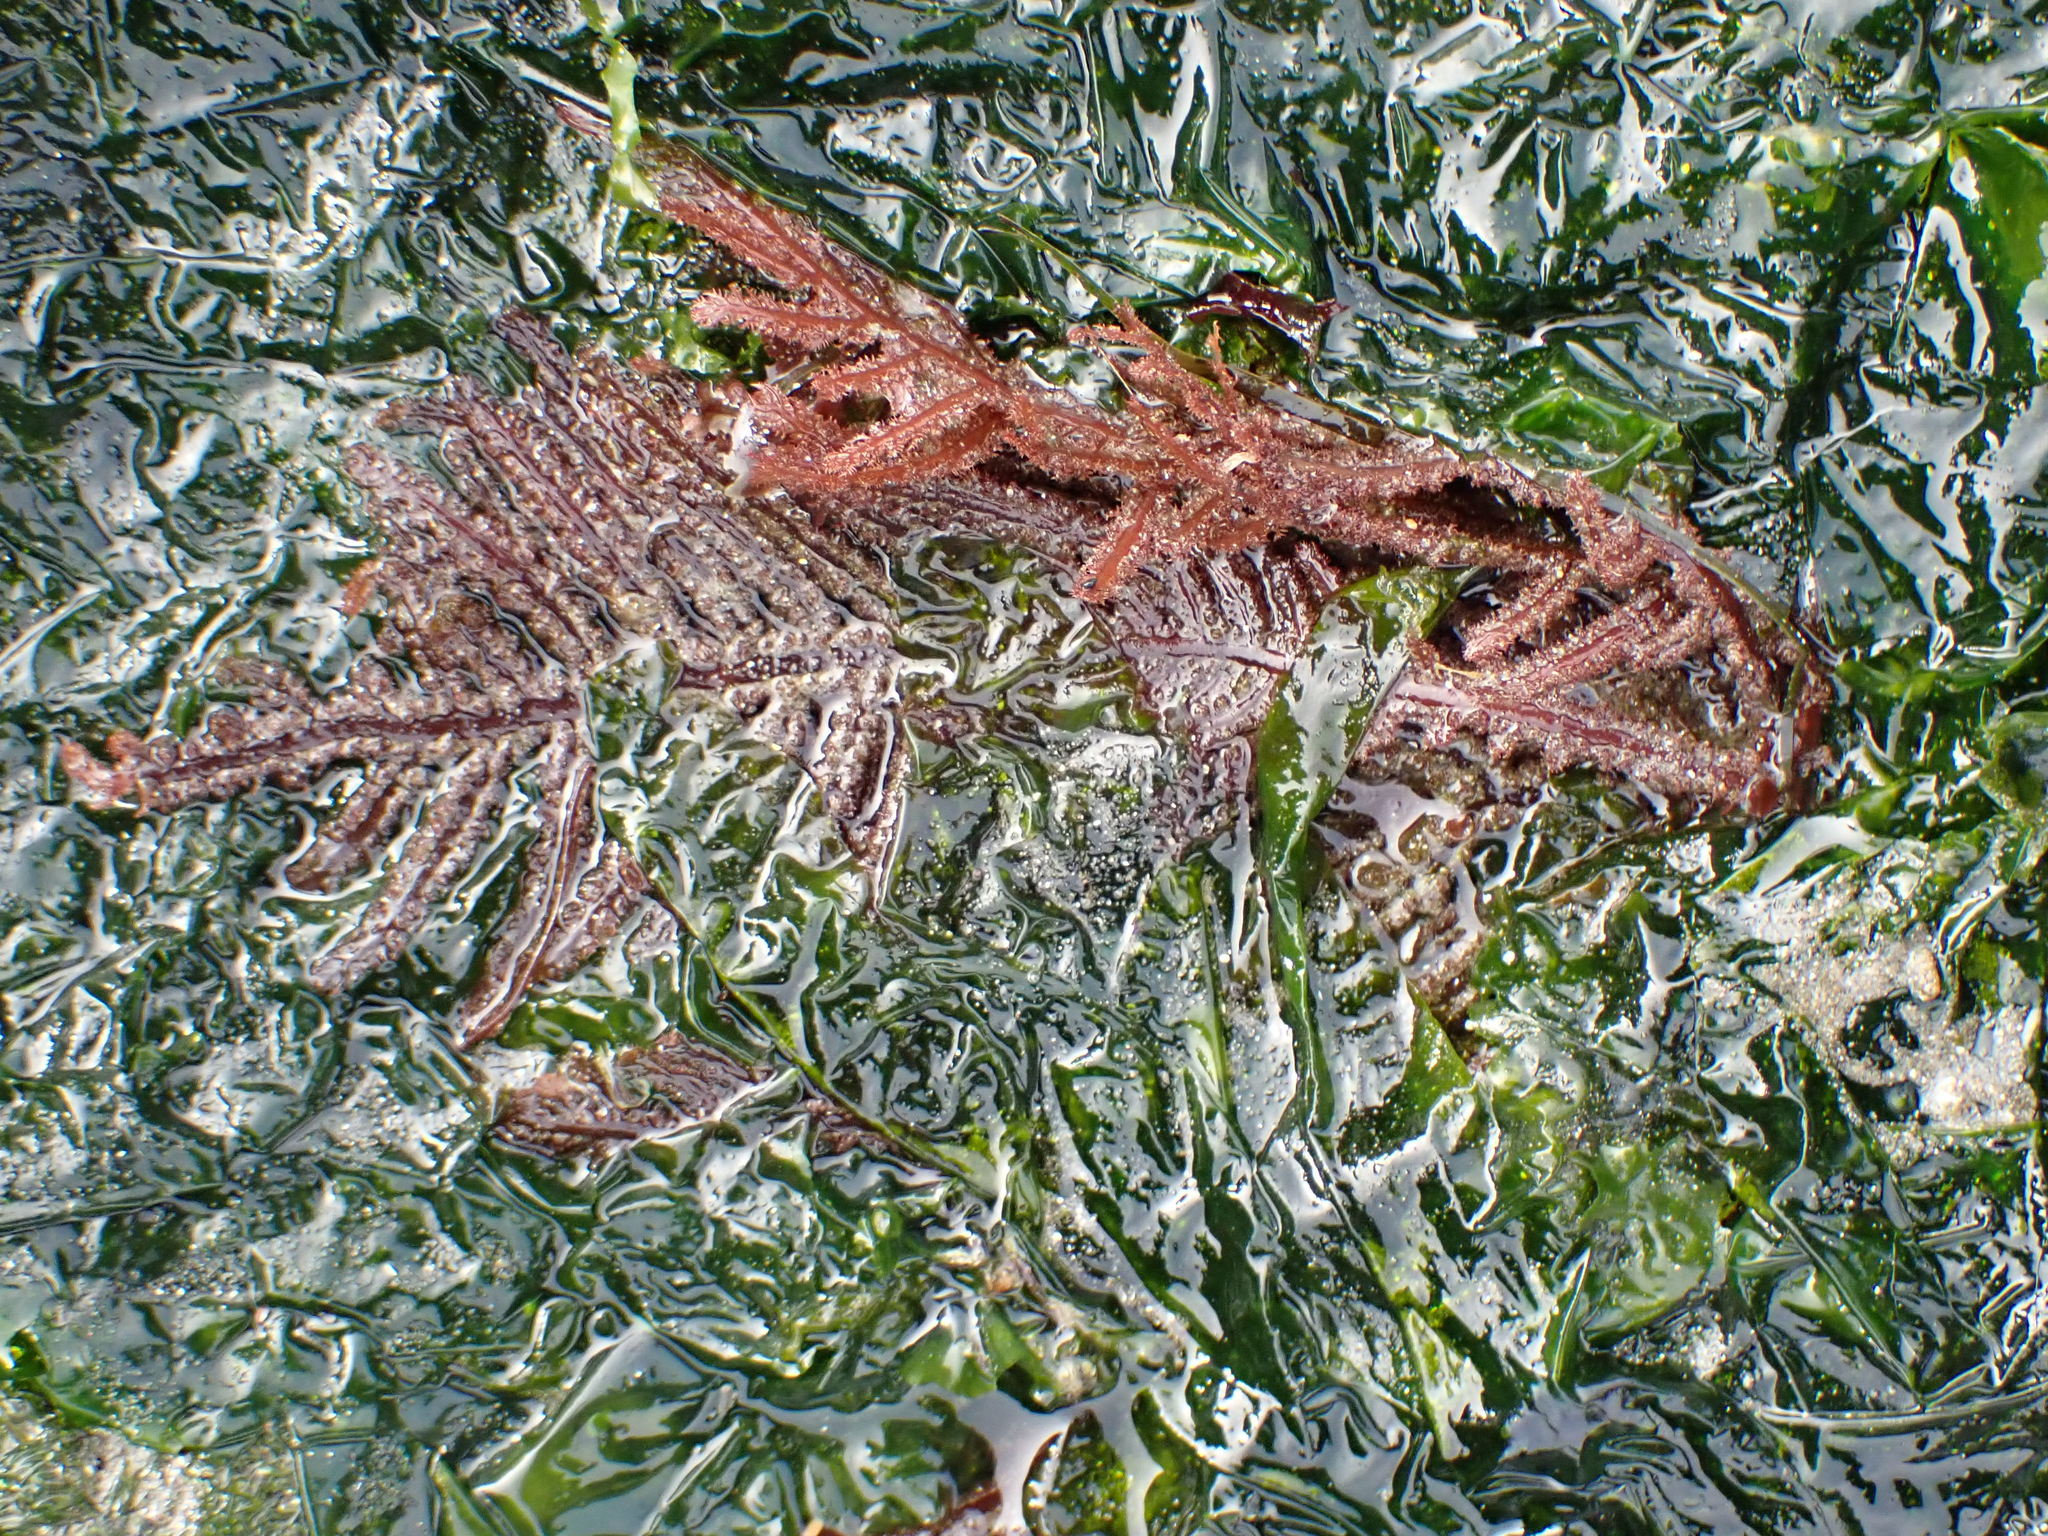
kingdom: Plantae
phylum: Rhodophyta
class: Florideophyceae
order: Ceramiales
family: Wrangeliaceae
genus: Neoptilota
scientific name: Neoptilota densa
